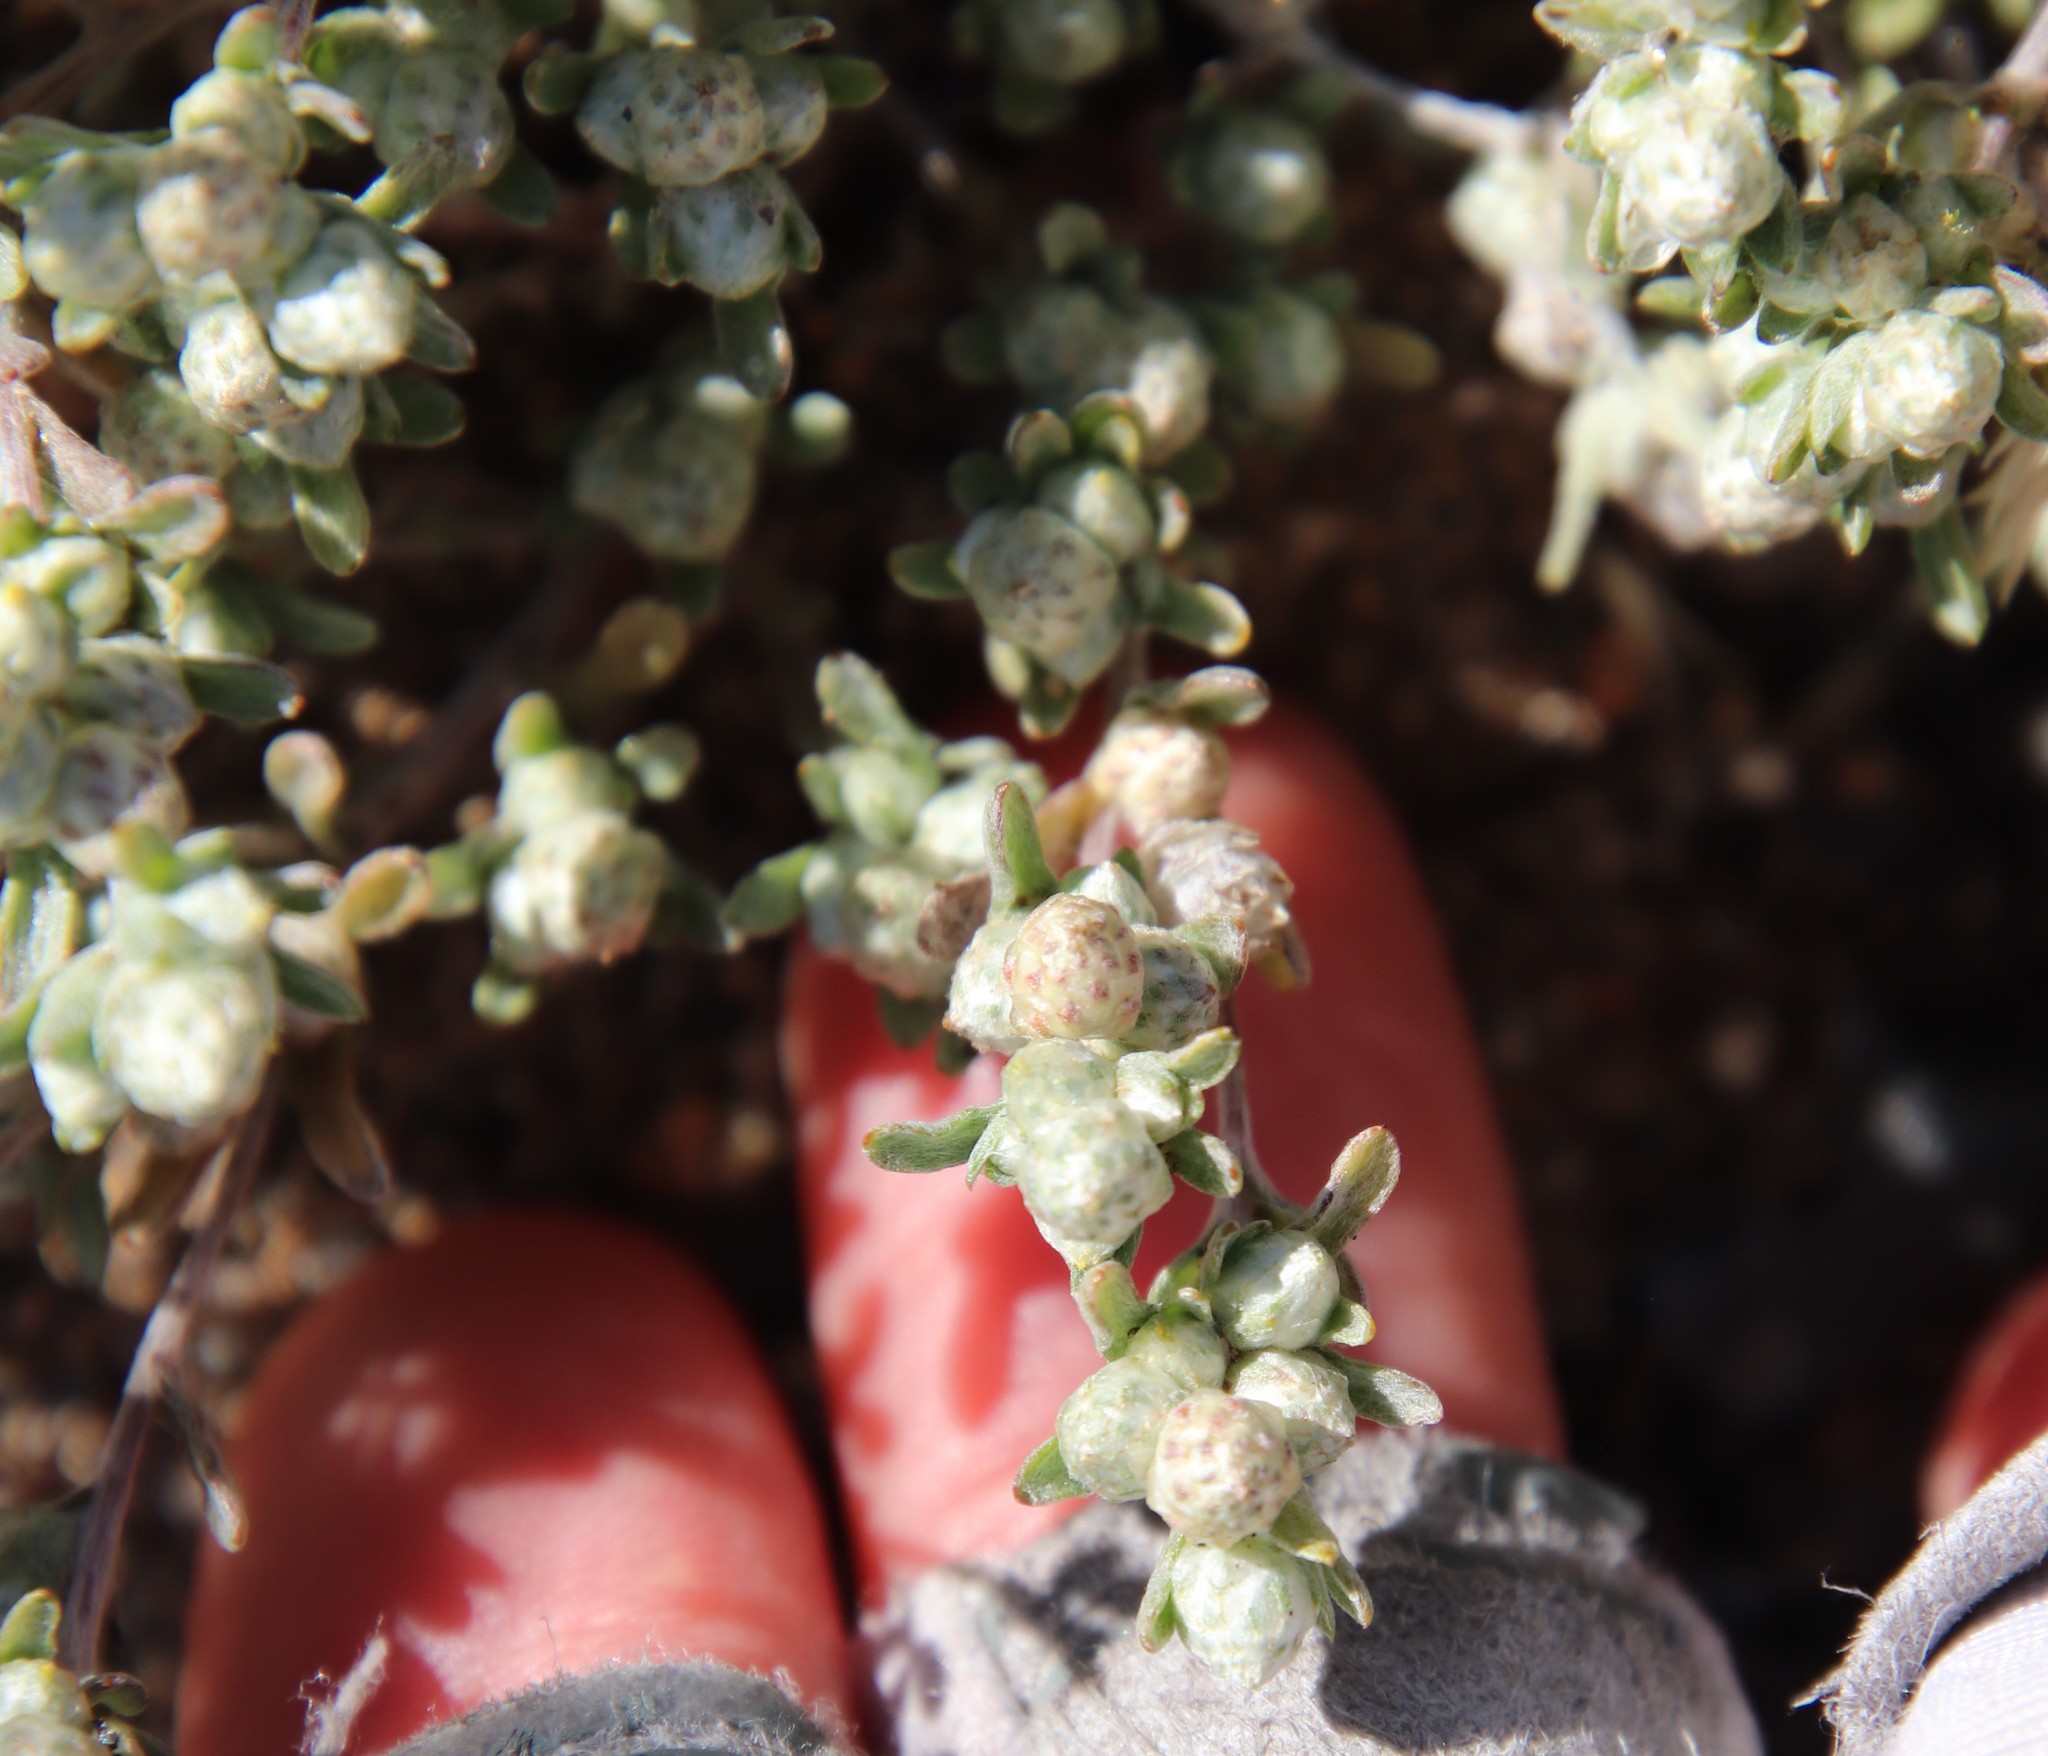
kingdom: Plantae
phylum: Tracheophyta
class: Magnoliopsida
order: Asterales
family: Asteraceae
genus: Stylocline
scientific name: Stylocline gnaphaloides
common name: Everlasting nest-straw
